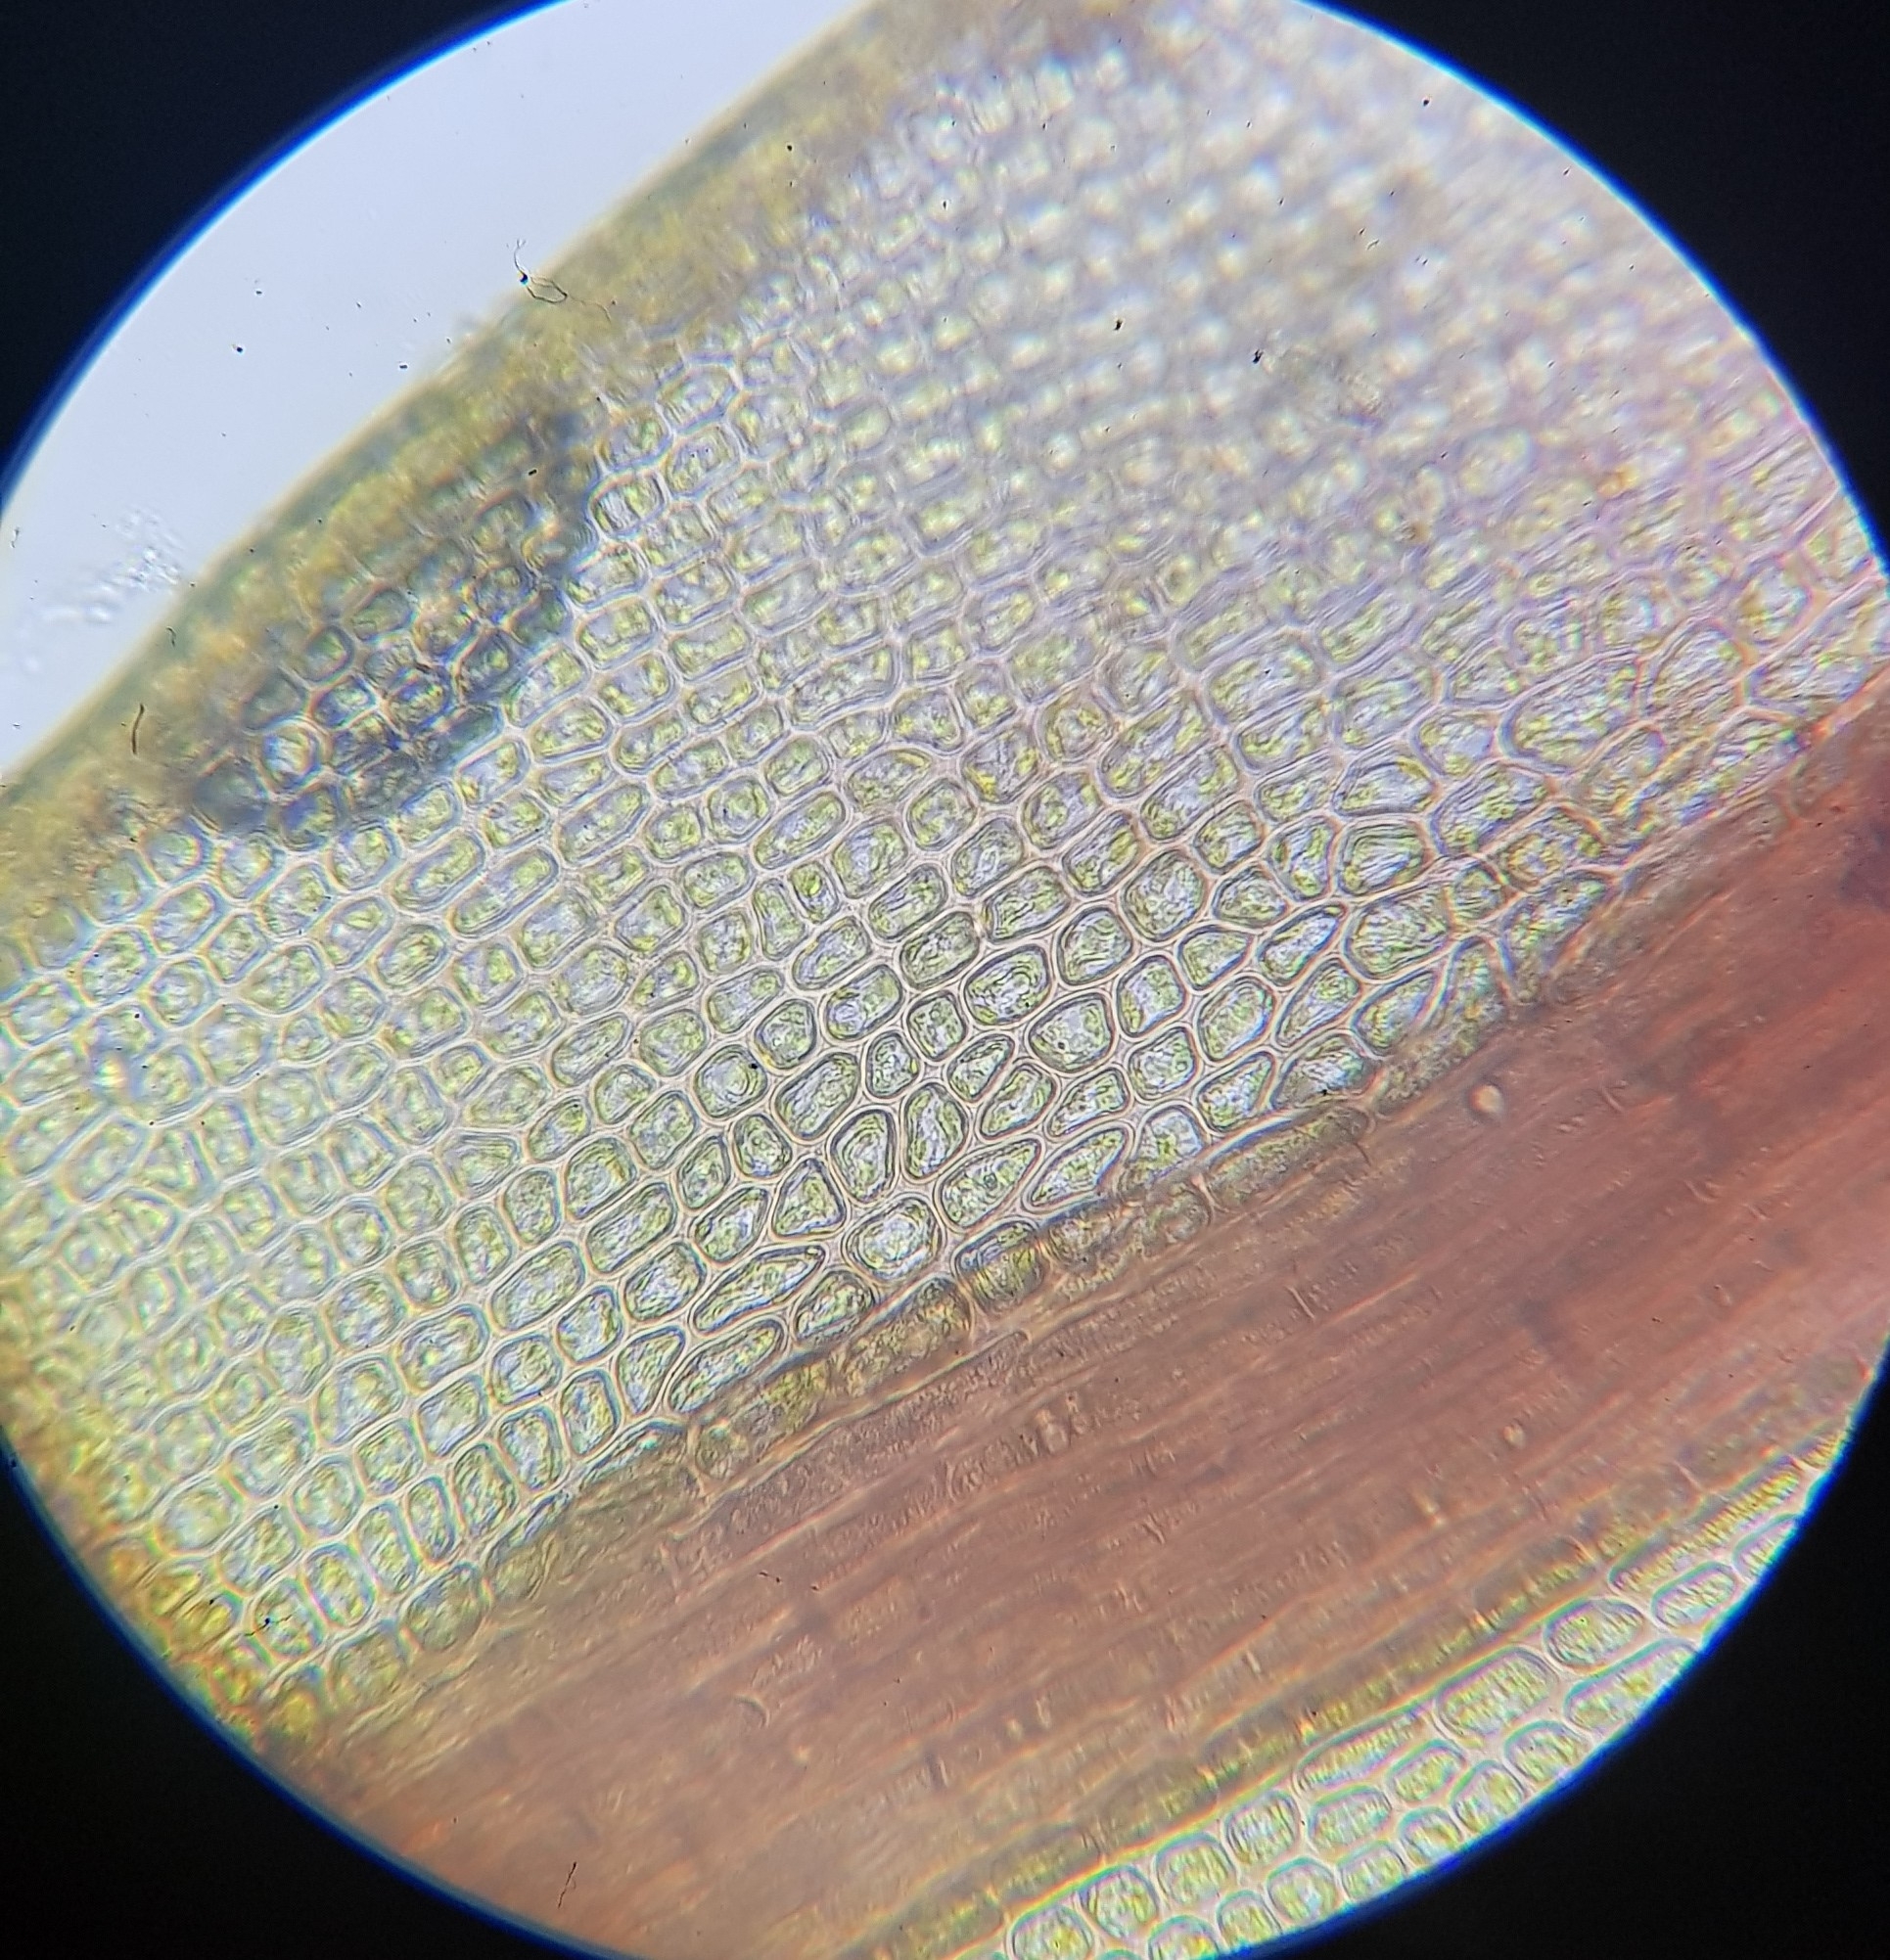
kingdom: Plantae
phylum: Bryophyta
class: Bryopsida
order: Dicranales
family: Ditrichaceae
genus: Ceratodon
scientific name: Ceratodon purpureus
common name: Redshank
